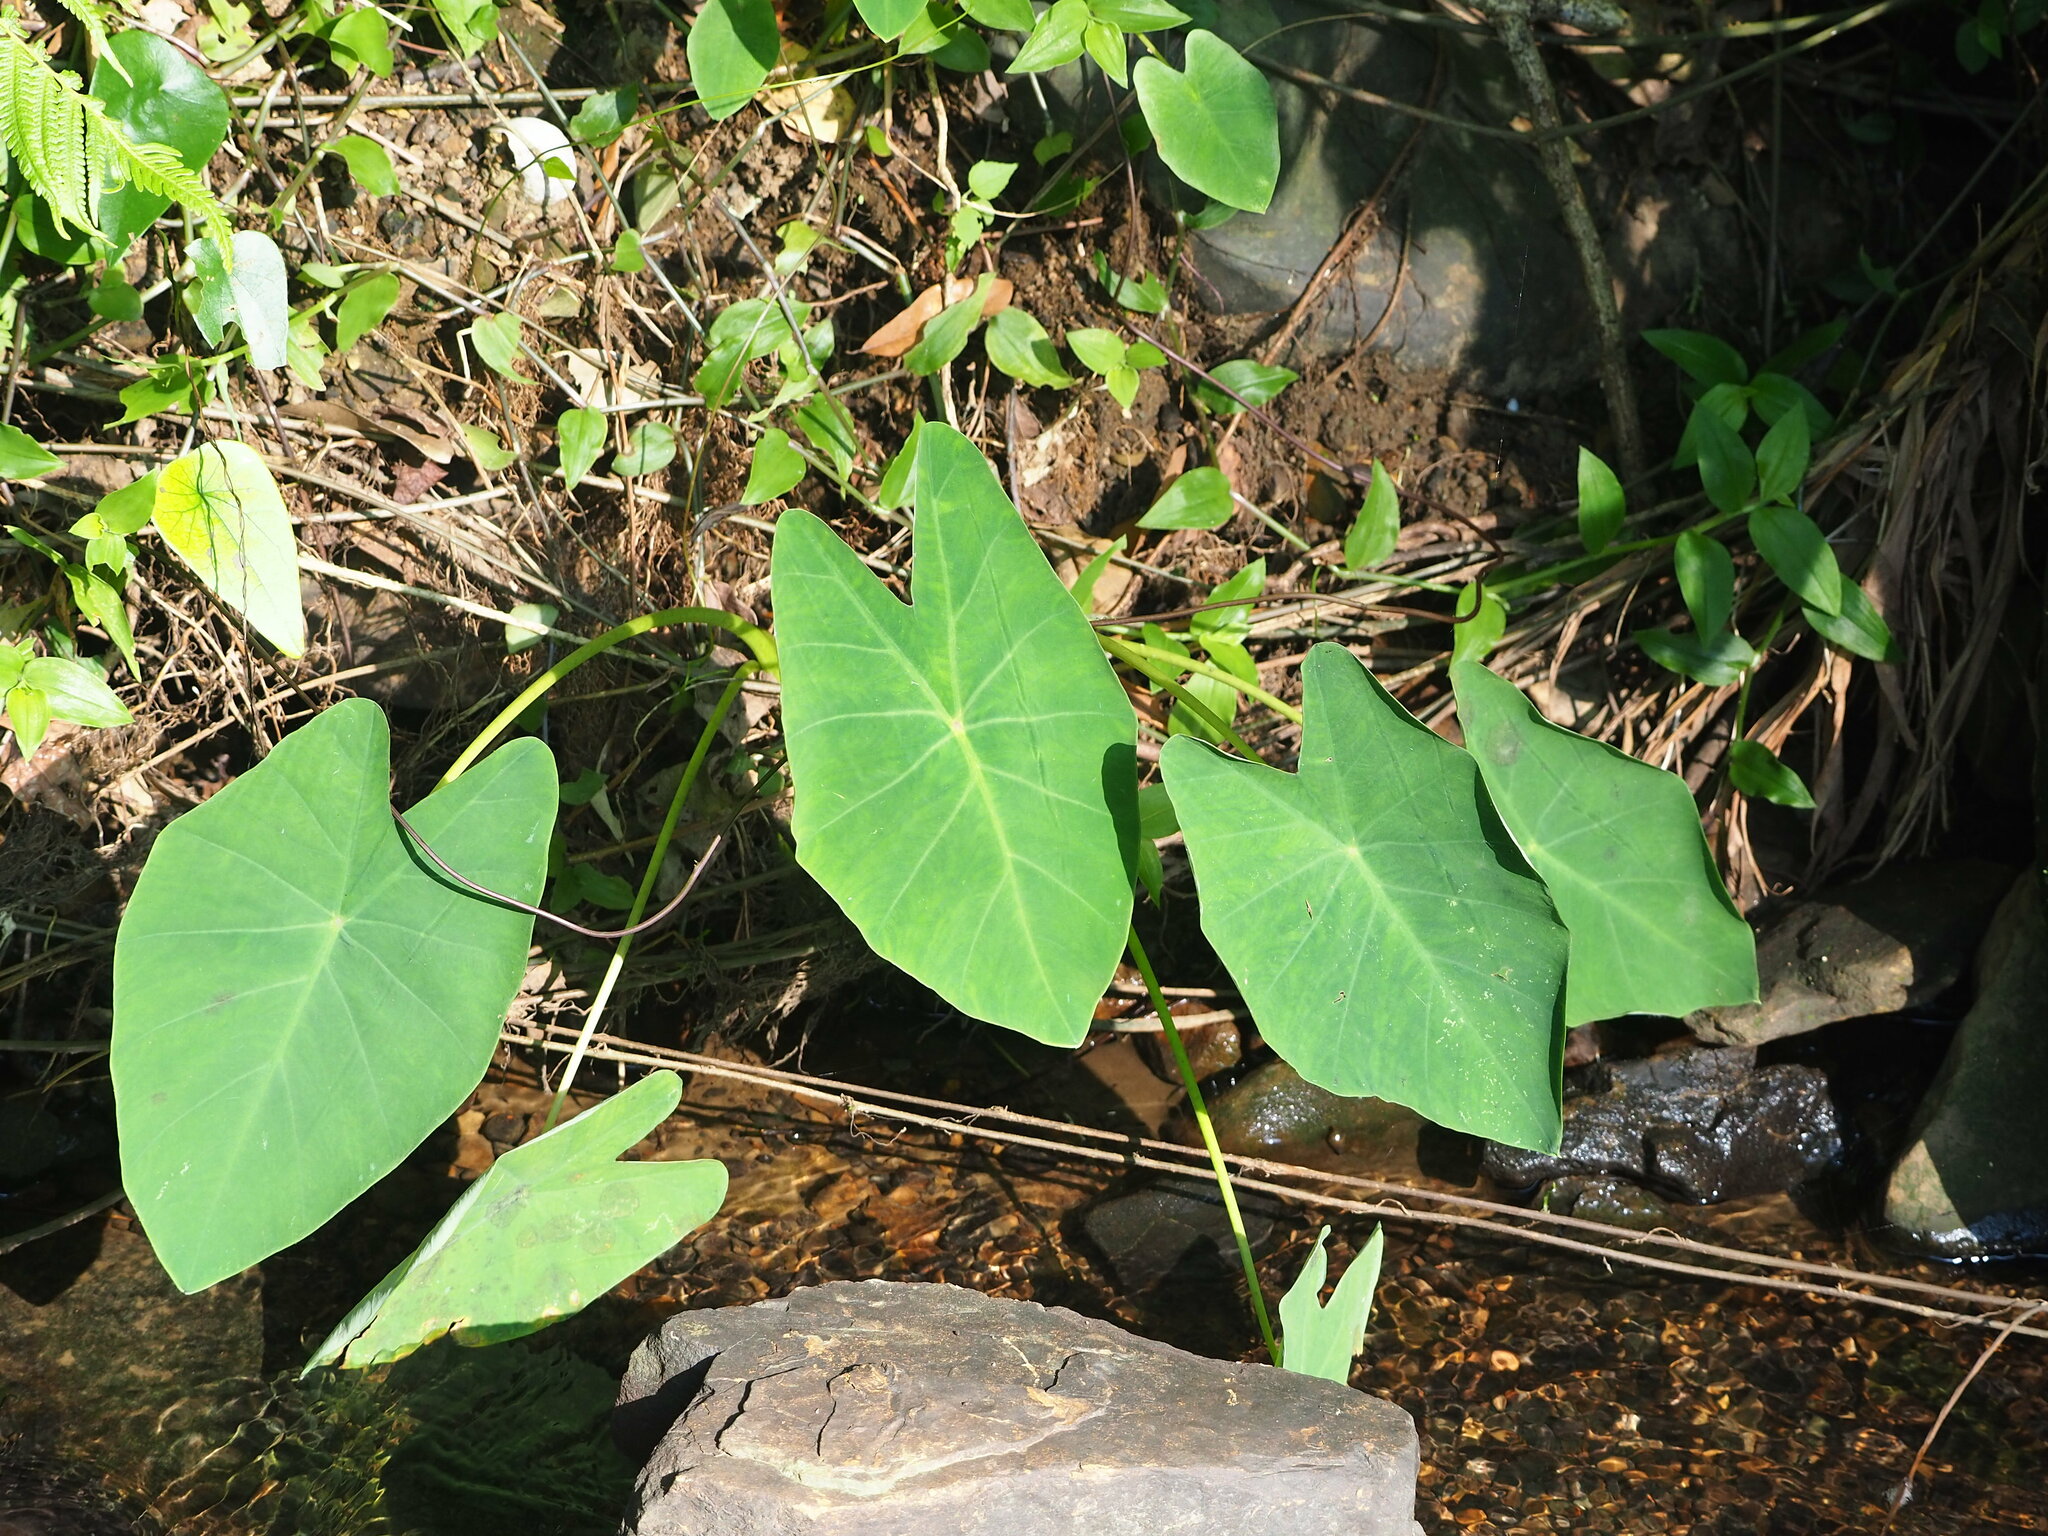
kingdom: Plantae
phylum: Tracheophyta
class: Liliopsida
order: Alismatales
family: Araceae
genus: Colocasia
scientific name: Colocasia esculenta
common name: Taro
